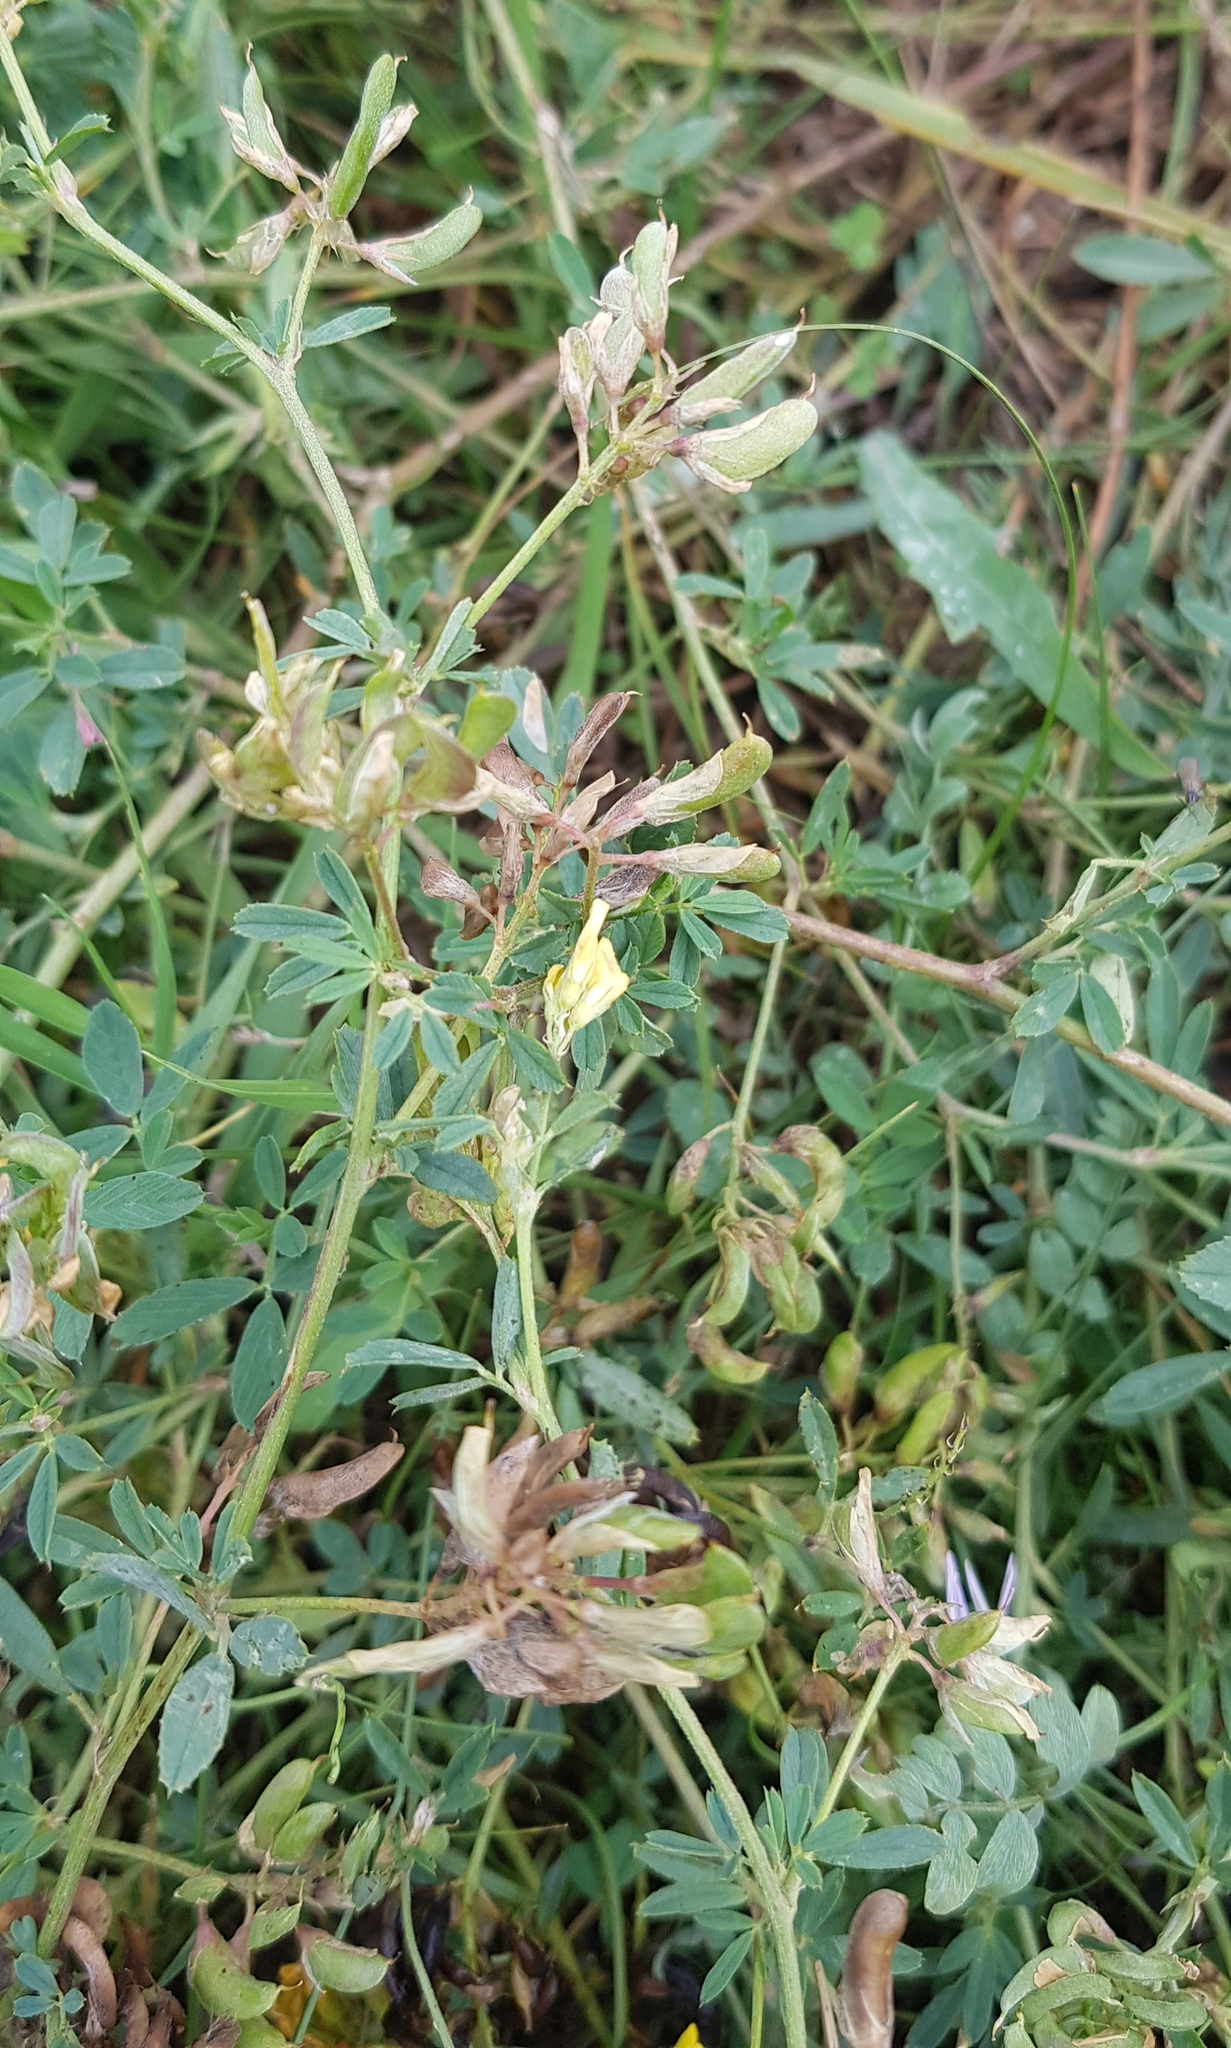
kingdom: Plantae
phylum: Tracheophyta
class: Magnoliopsida
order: Fabales
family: Fabaceae
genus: Medicago
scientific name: Medicago falcata
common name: Sickle medick
